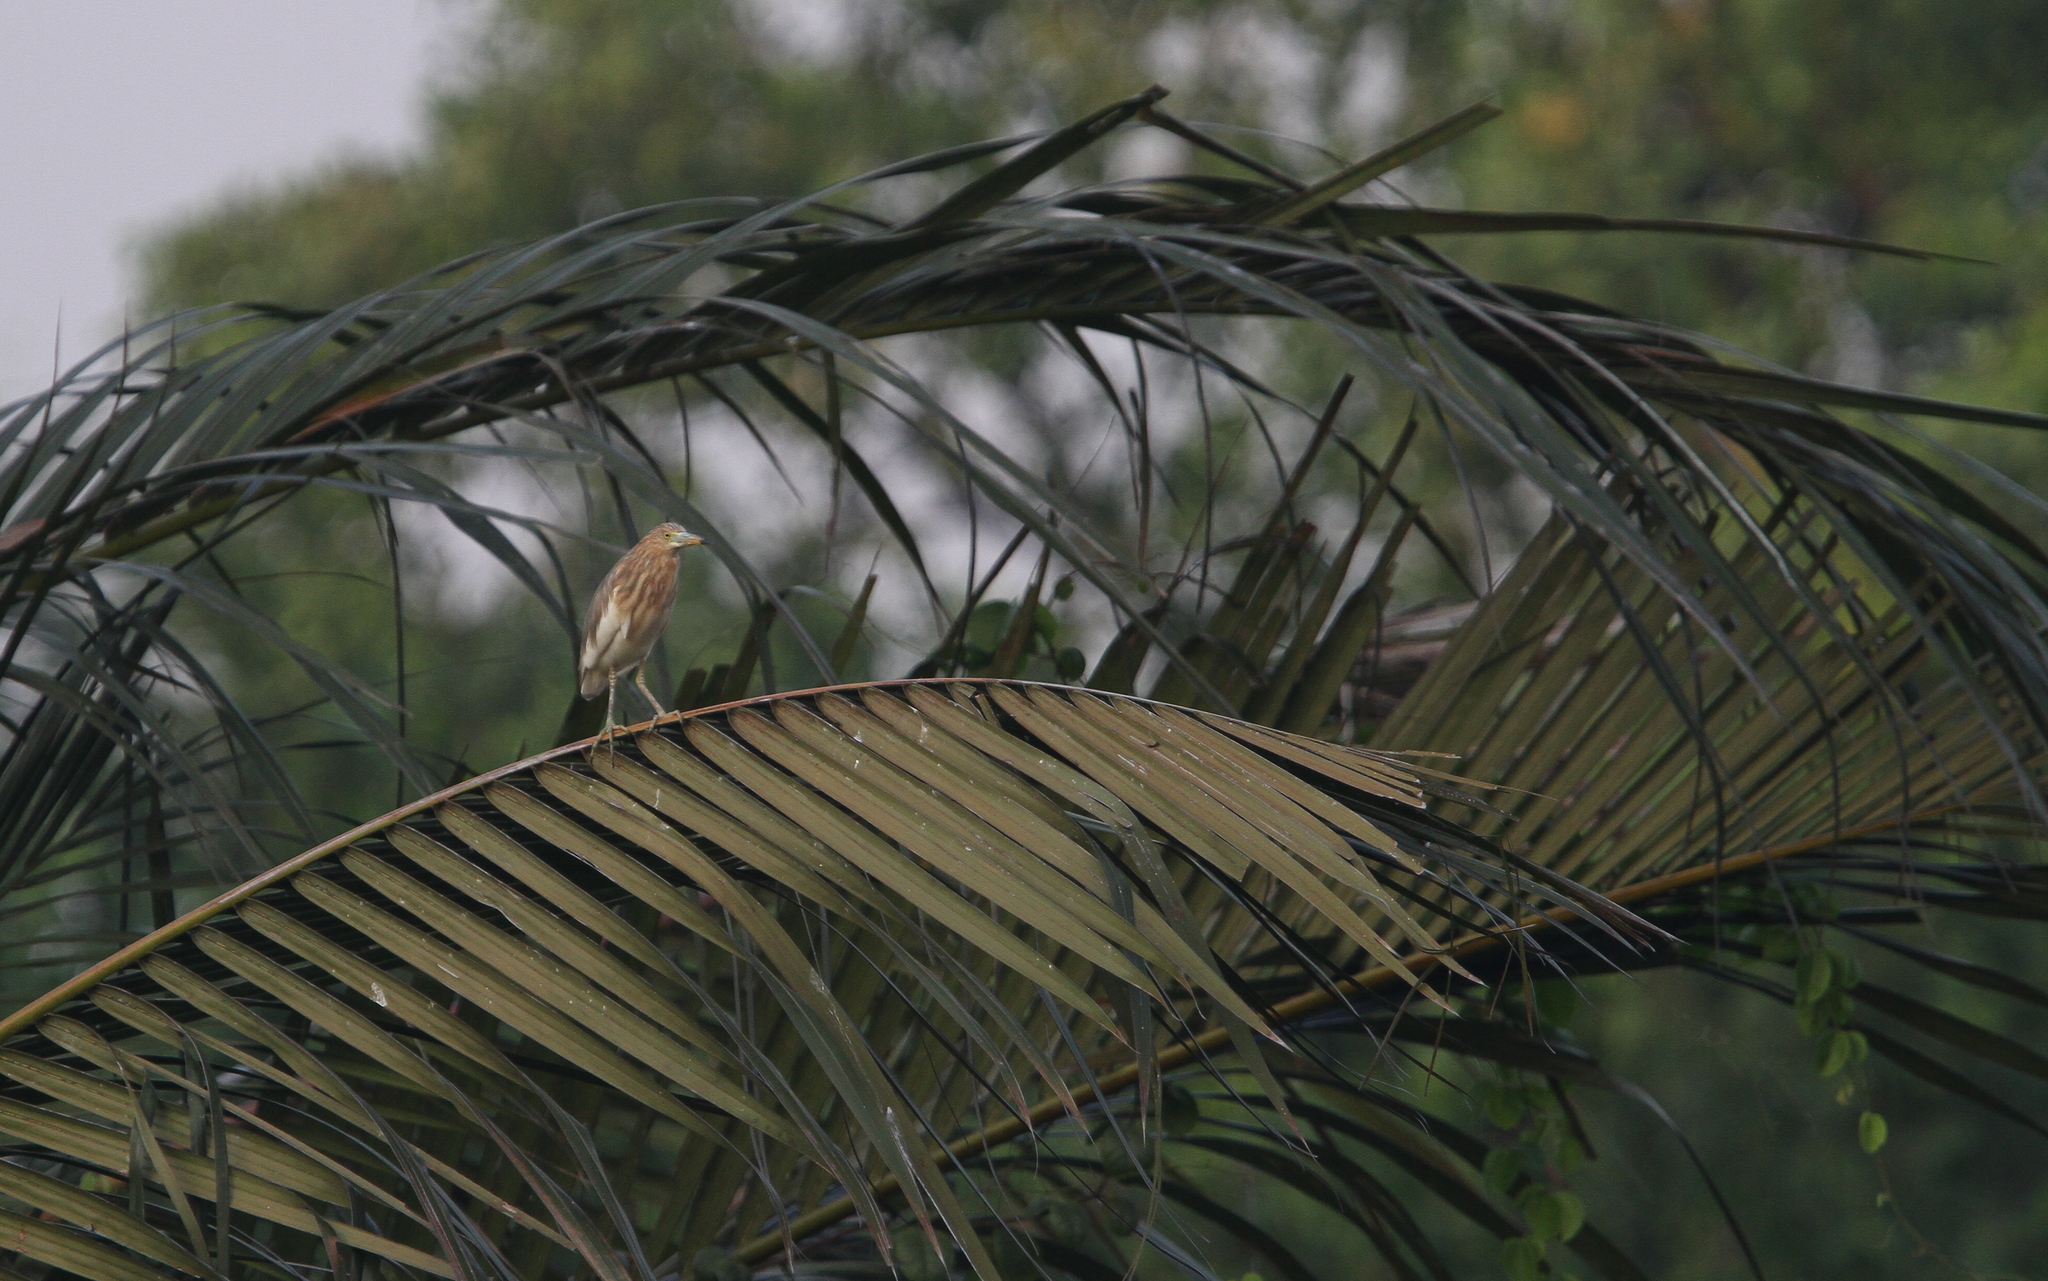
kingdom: Animalia
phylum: Chordata
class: Aves
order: Pelecaniformes
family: Ardeidae
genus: Ardeola
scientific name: Ardeola speciosa
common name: Javan pond heron
